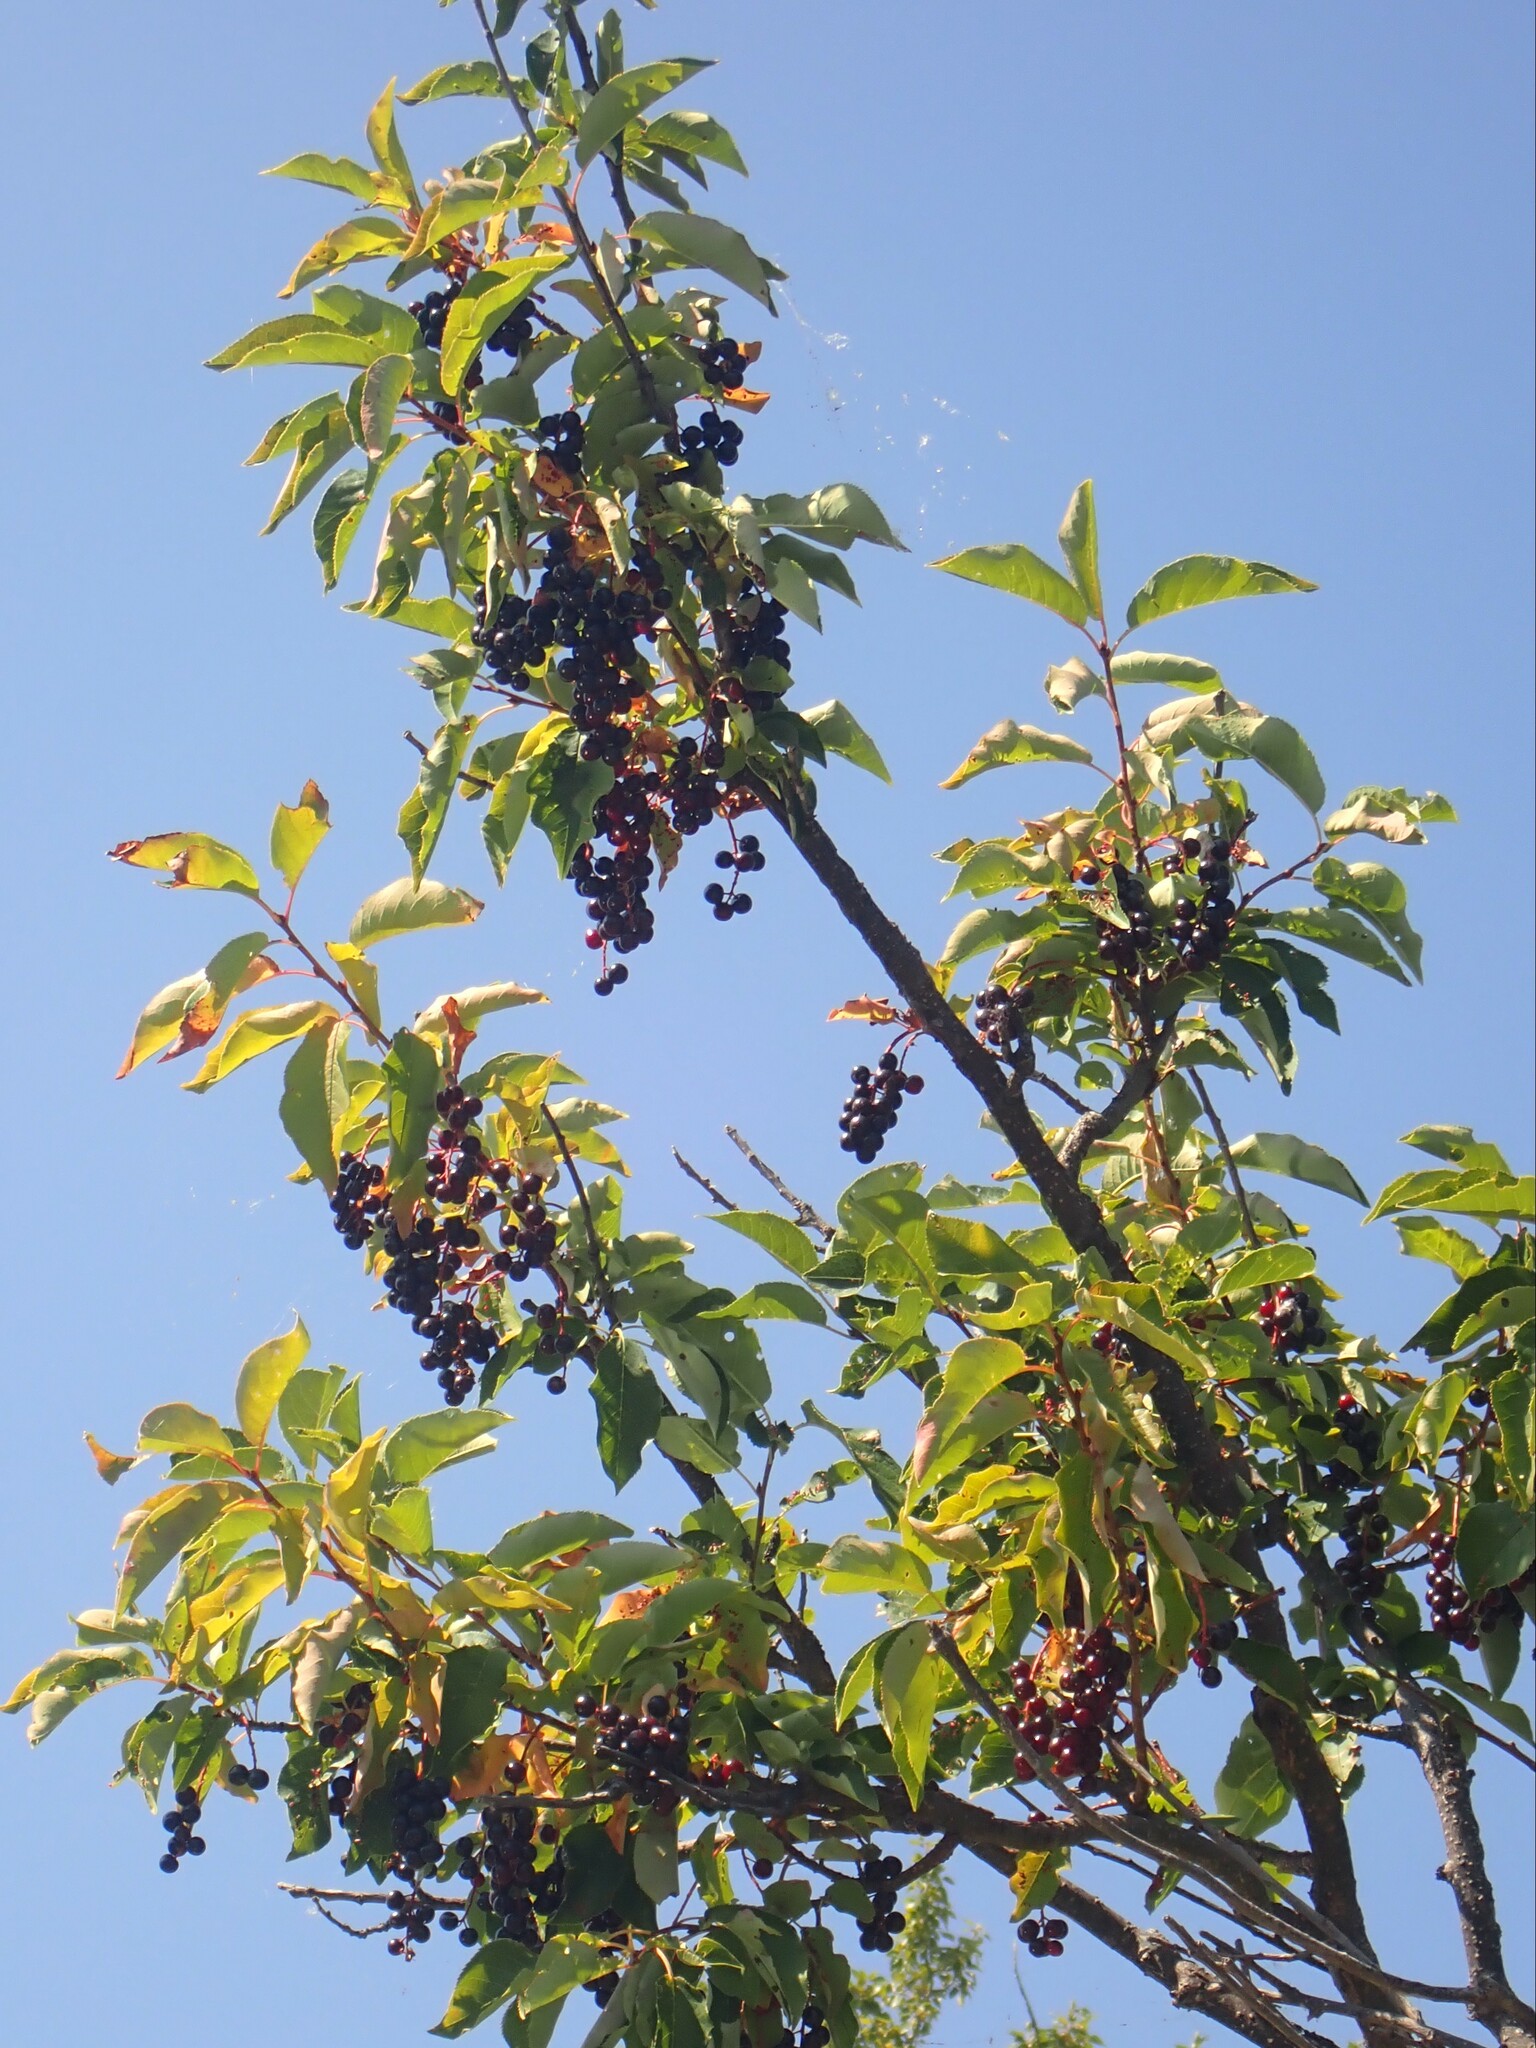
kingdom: Plantae
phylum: Tracheophyta
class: Magnoliopsida
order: Rosales
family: Rosaceae
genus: Prunus
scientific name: Prunus virginiana
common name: Chokecherry
